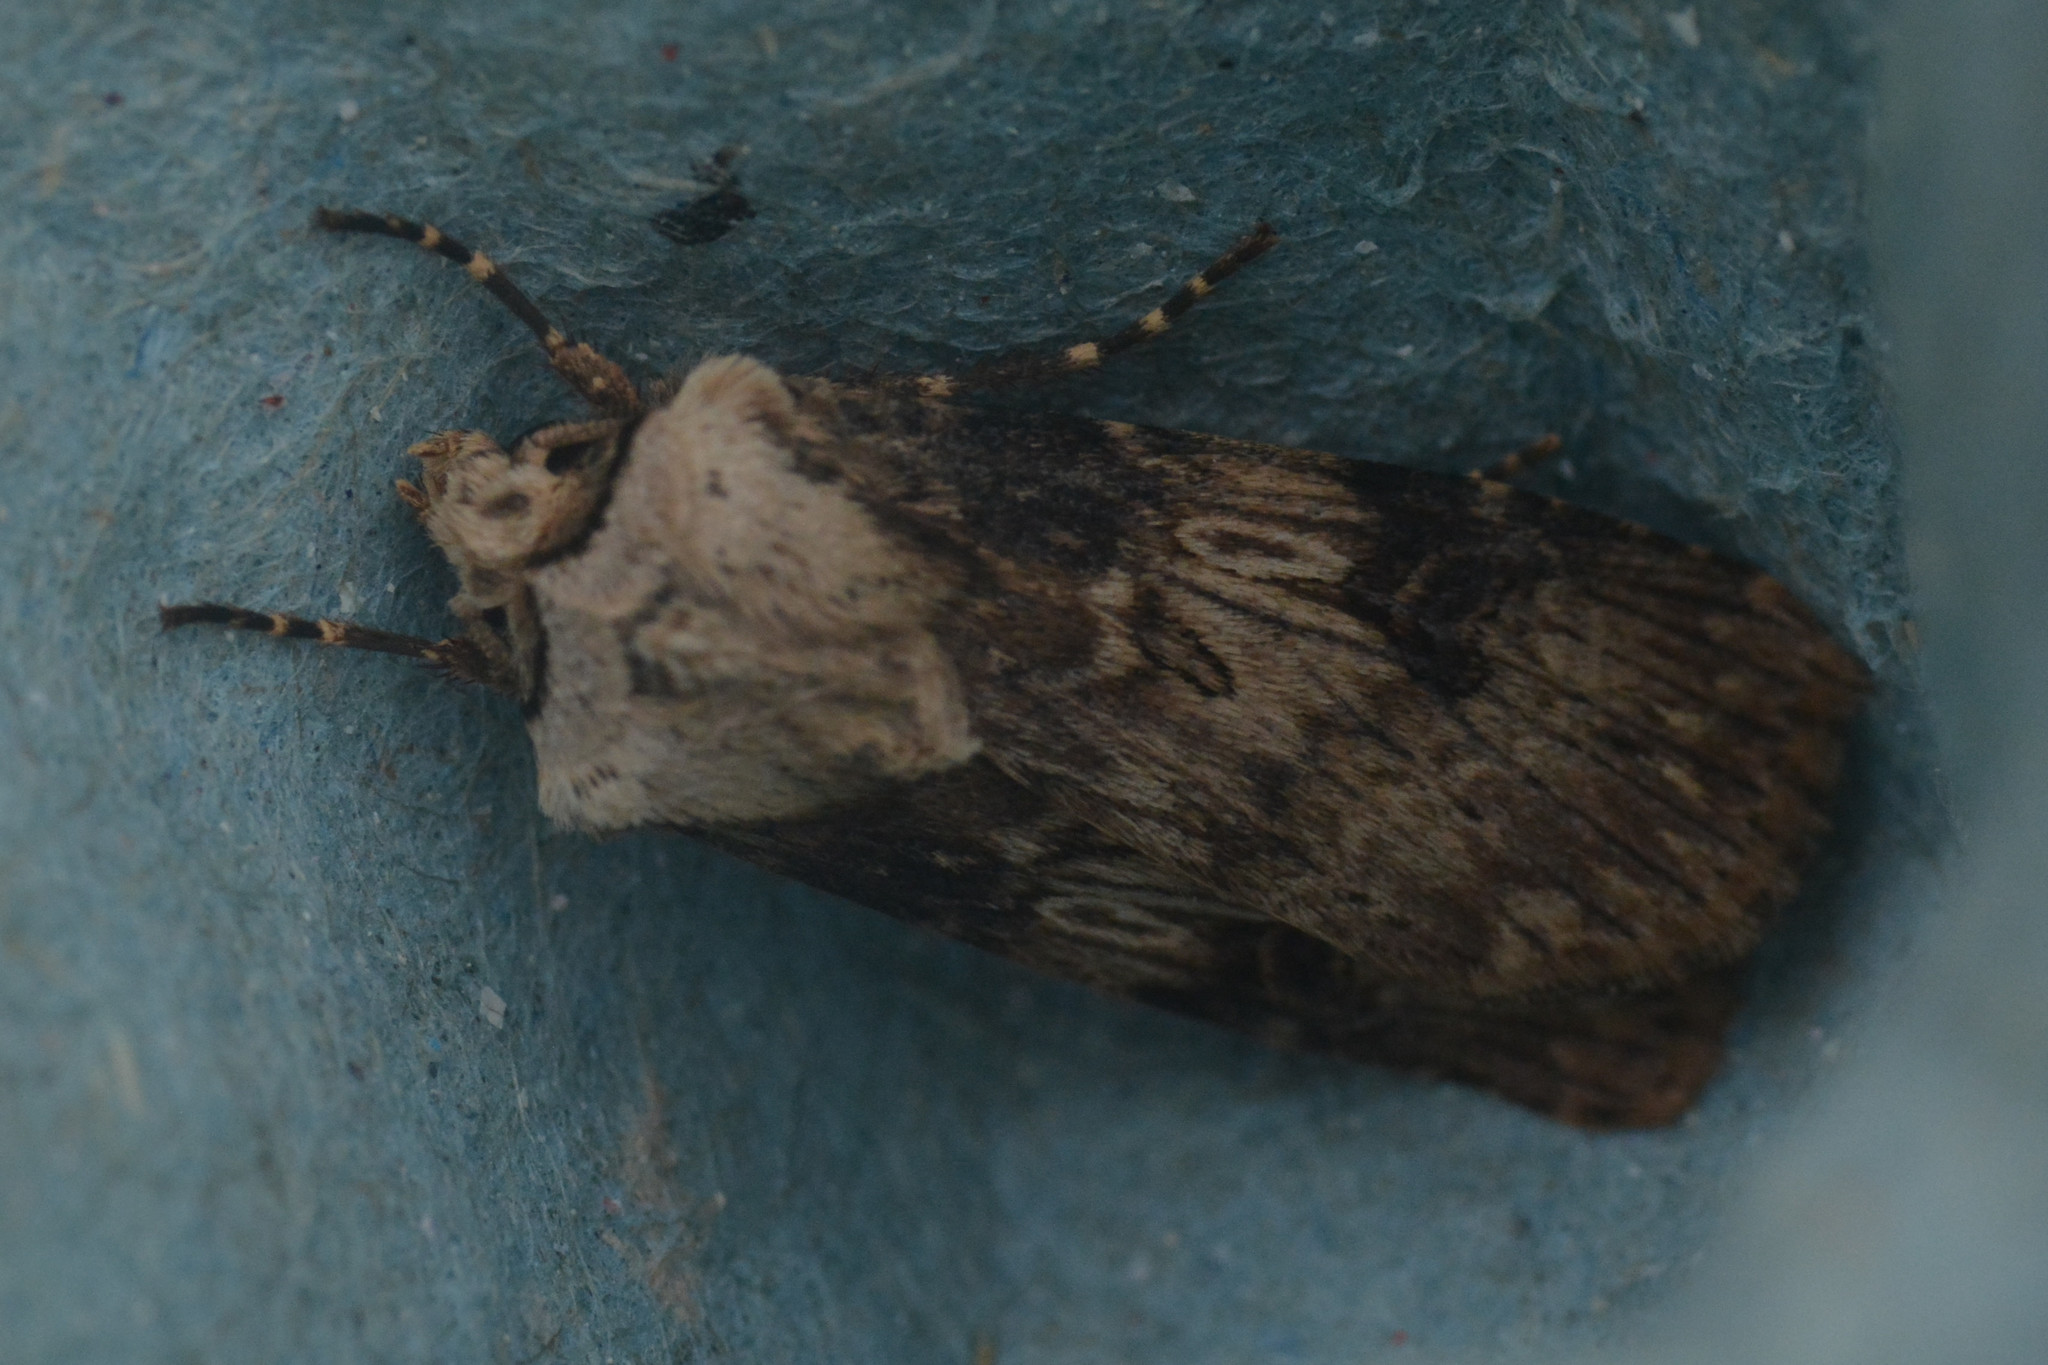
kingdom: Animalia
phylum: Arthropoda
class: Insecta
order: Lepidoptera
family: Noctuidae
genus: Agrotis
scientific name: Agrotis puta
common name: Shuttle-shaped dart
